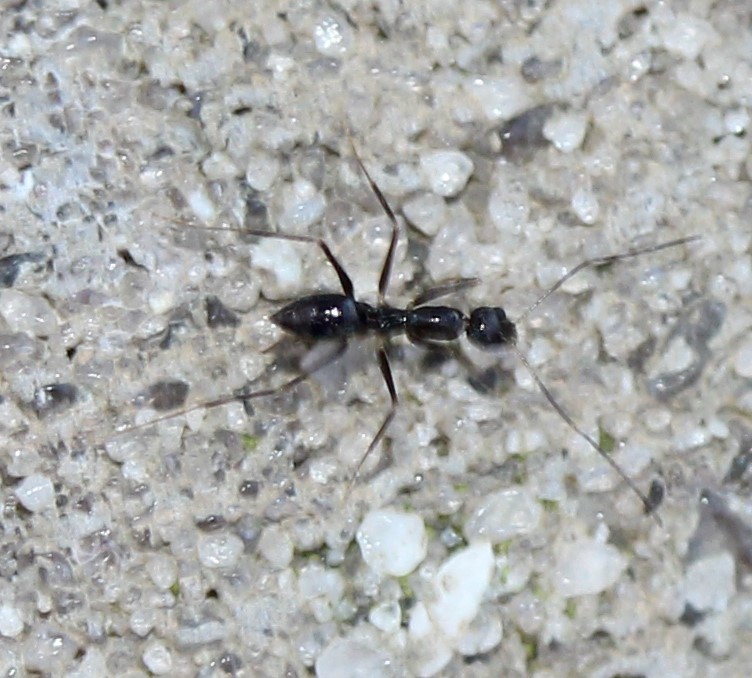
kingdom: Animalia
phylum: Arthropoda
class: Insecta
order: Hymenoptera
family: Formicidae
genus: Paratrechina
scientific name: Paratrechina longicornis
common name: Longhorned crazy ant
